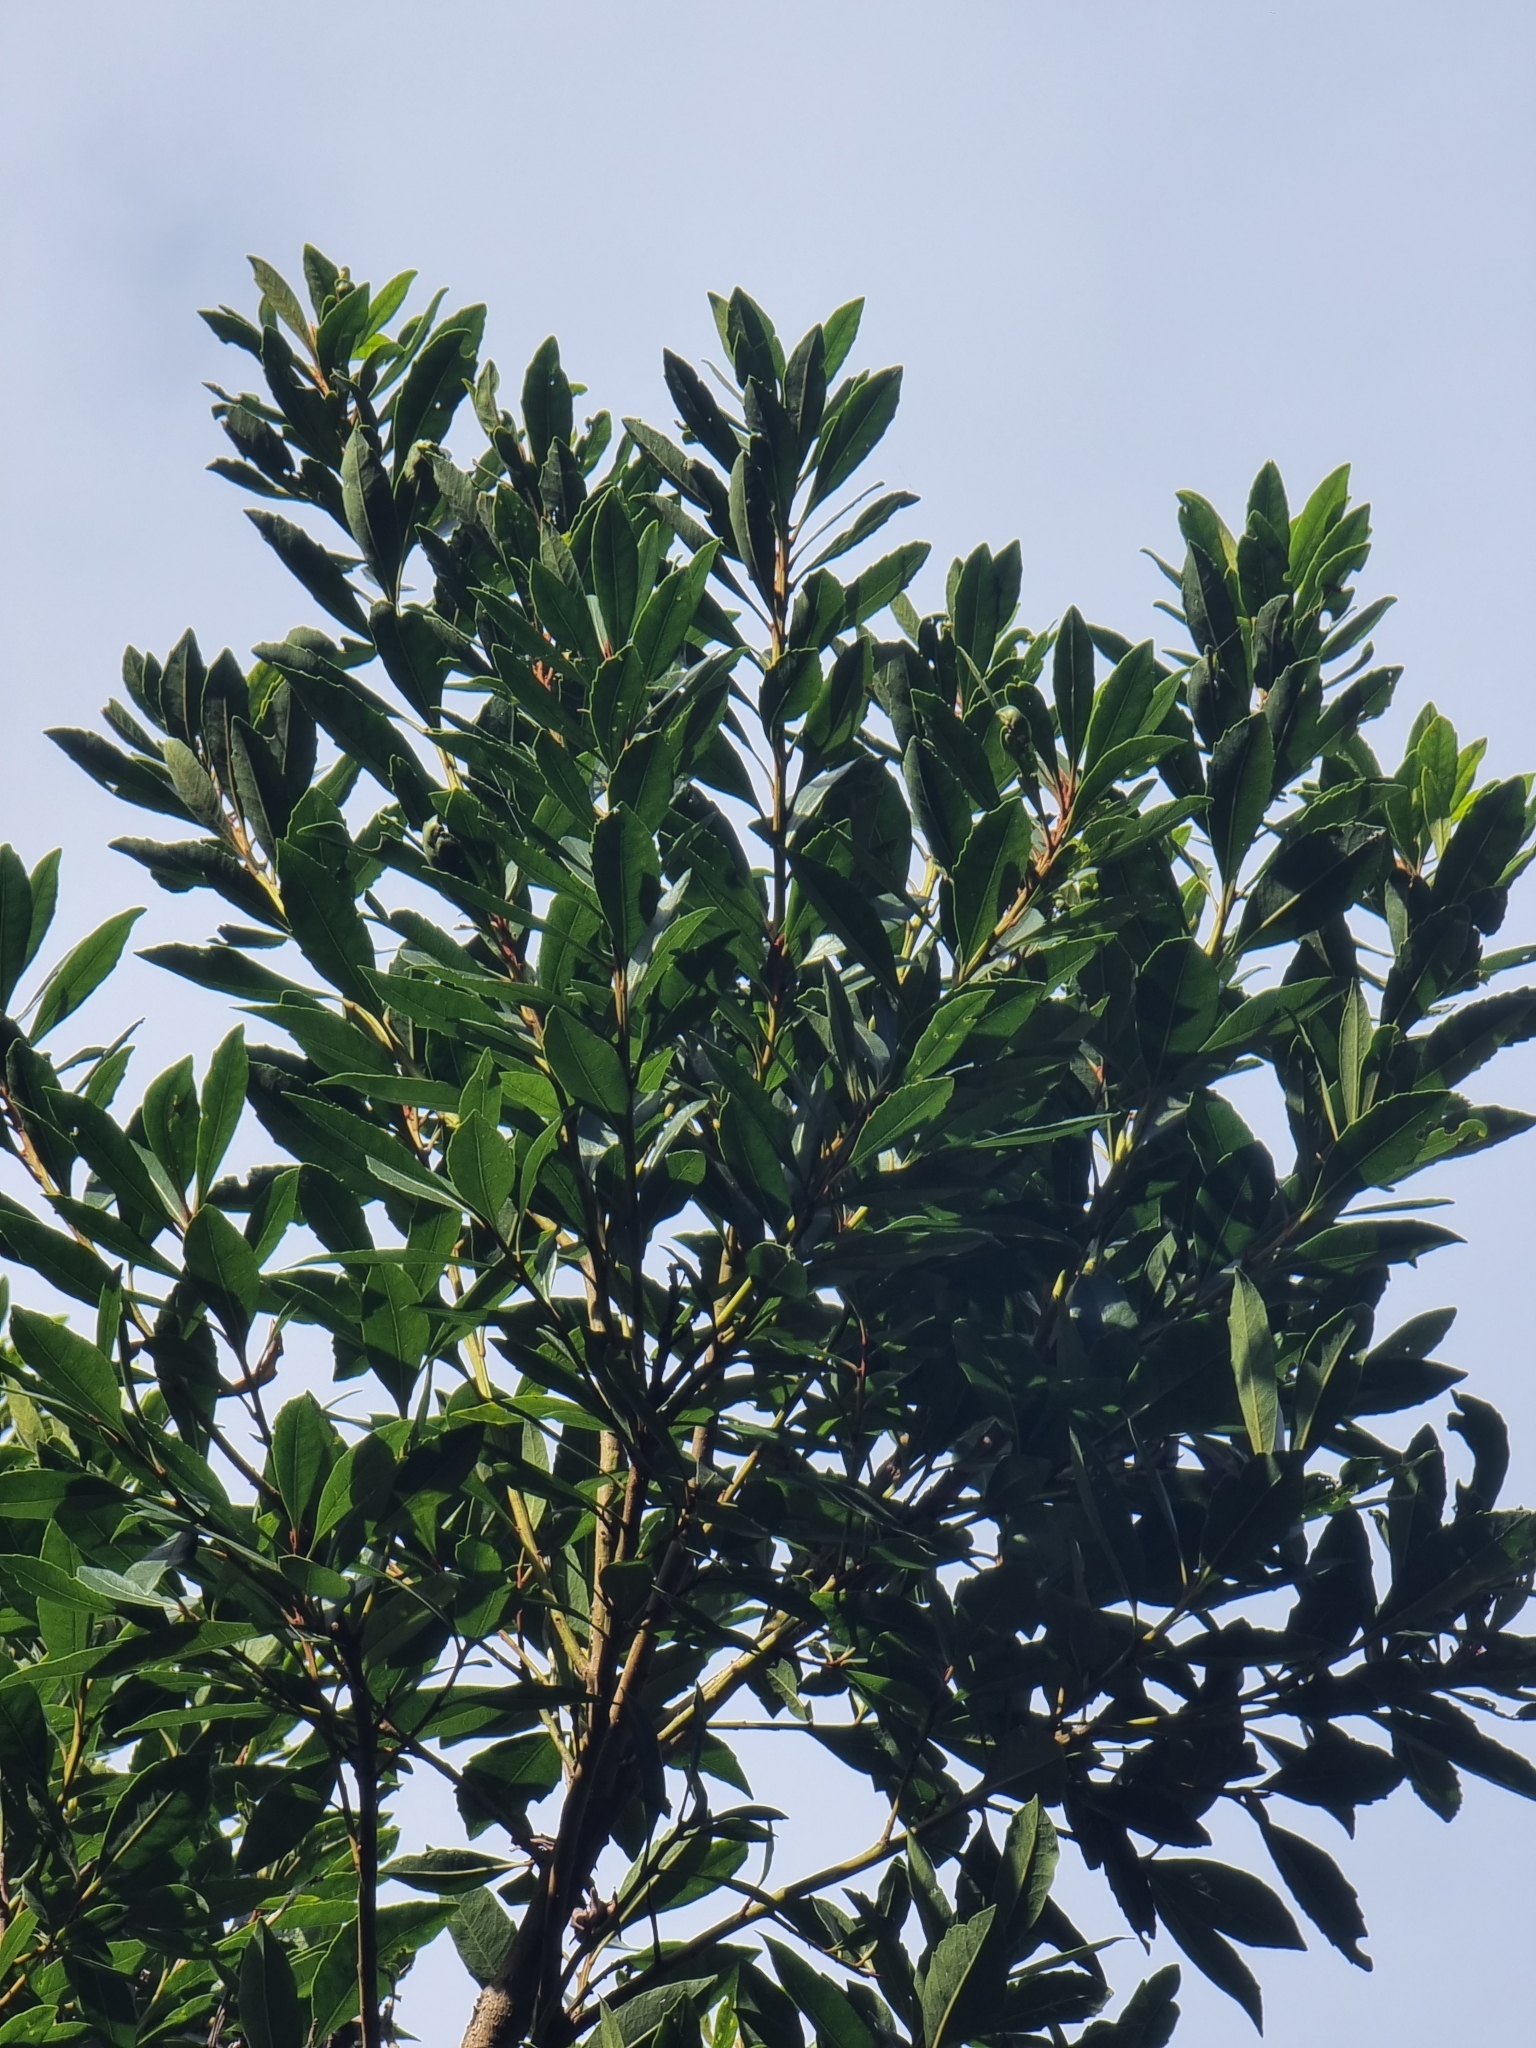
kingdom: Plantae
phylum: Tracheophyta
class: Magnoliopsida
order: Fagales
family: Myricaceae
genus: Morella
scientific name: Morella faya
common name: Firetree
